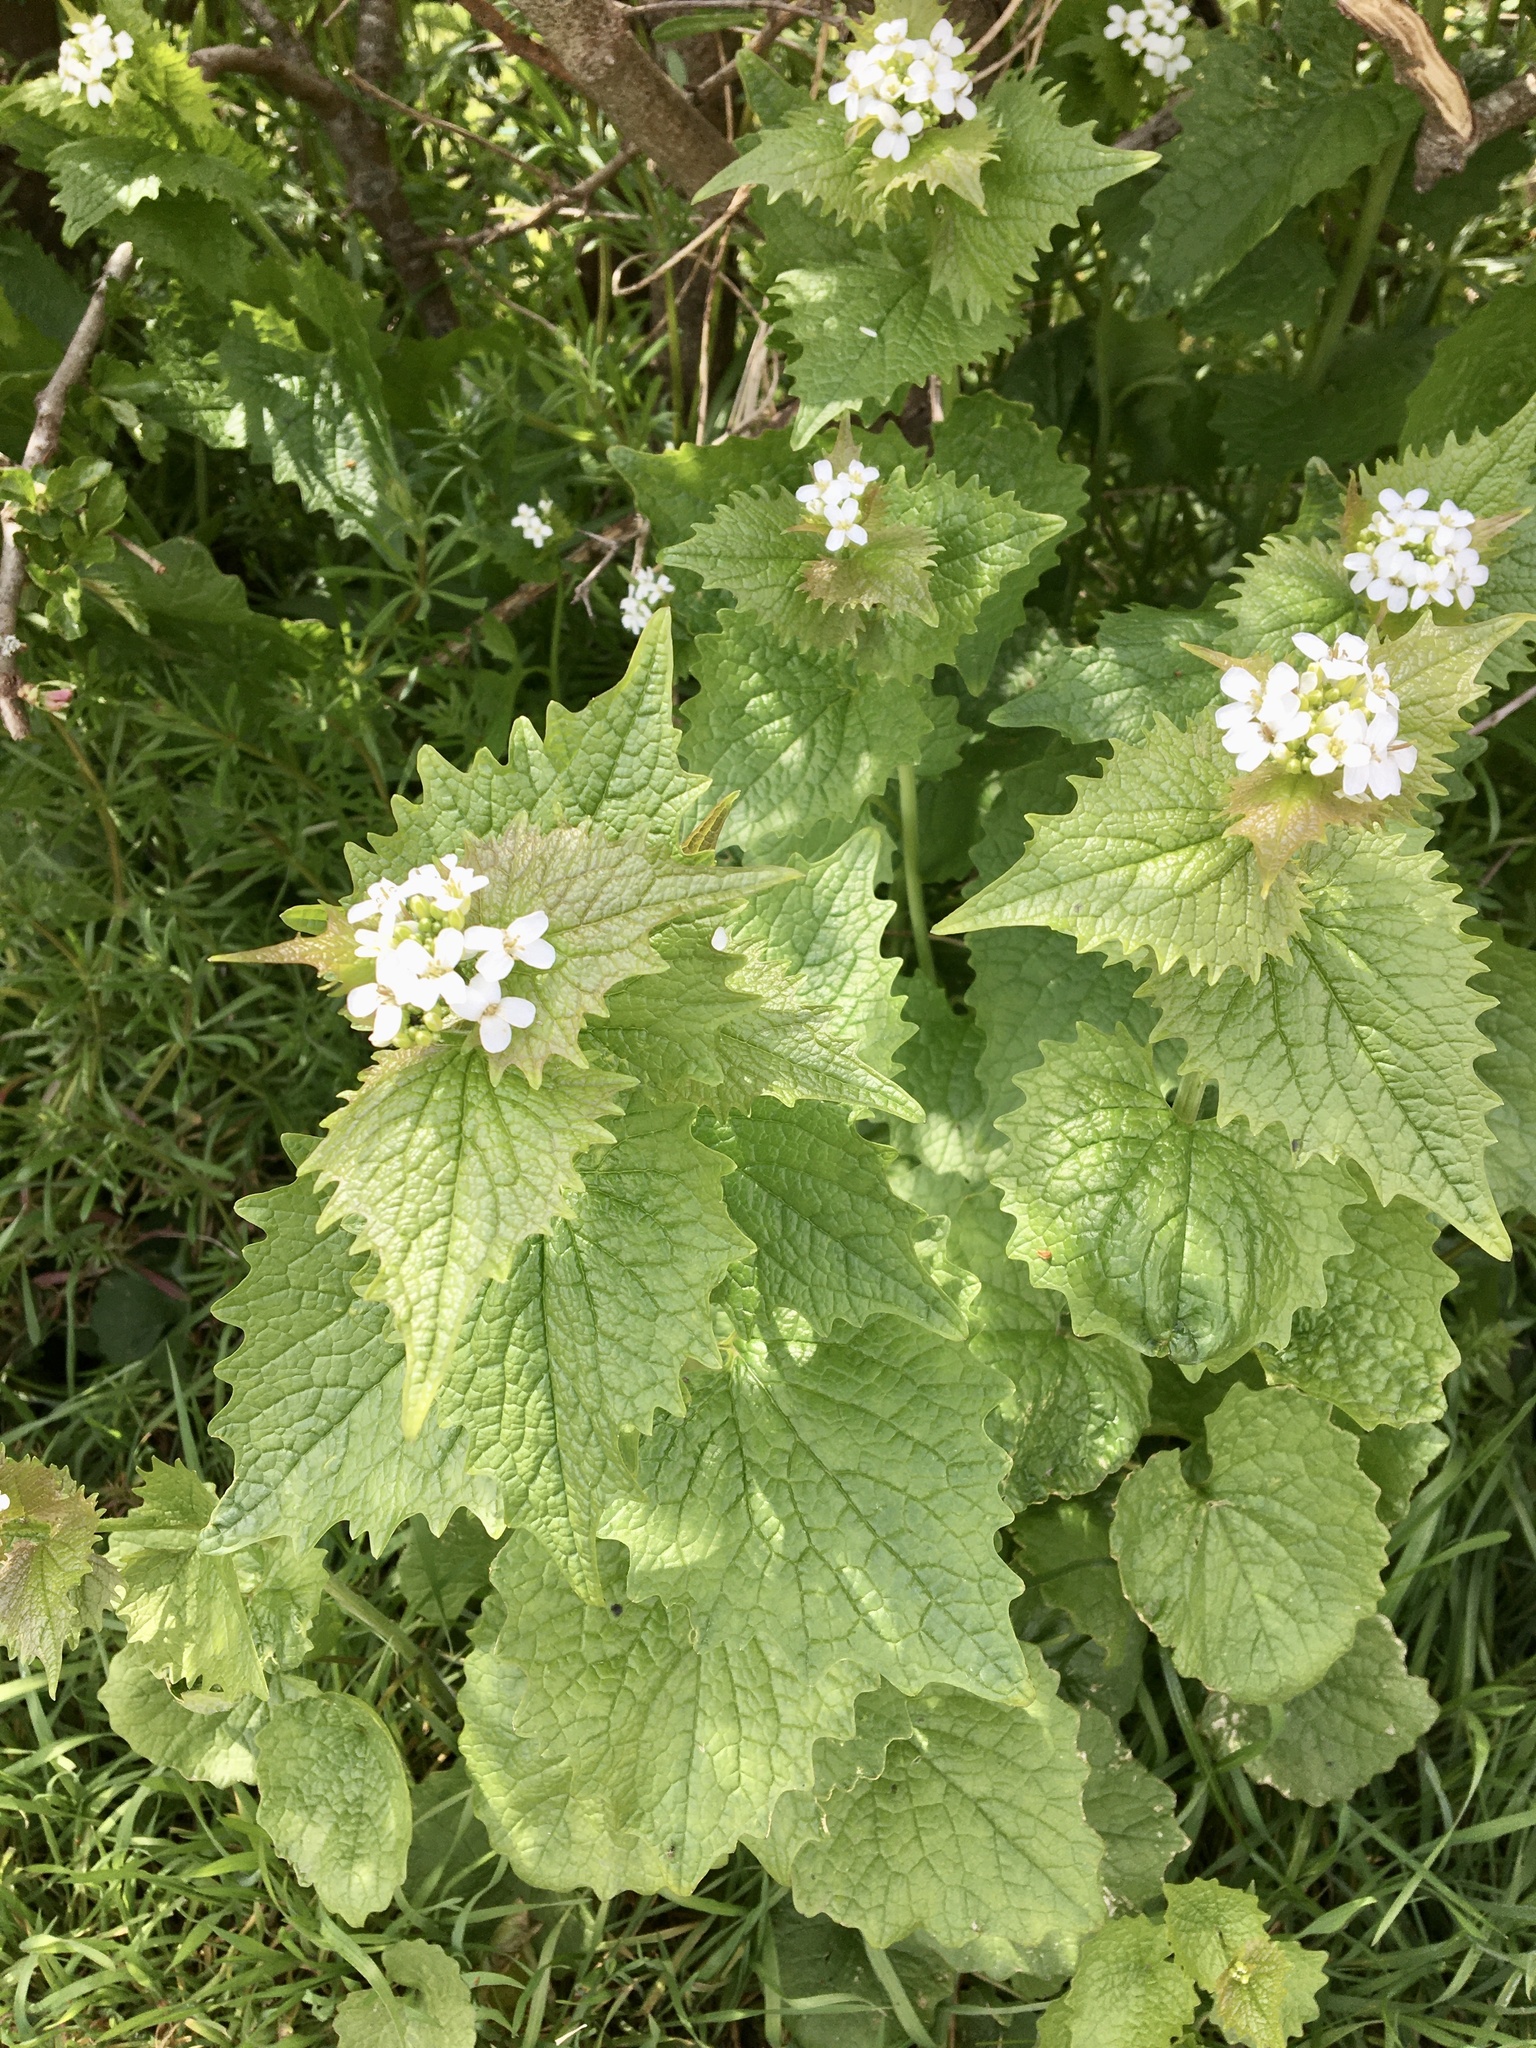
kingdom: Plantae
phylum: Tracheophyta
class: Magnoliopsida
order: Brassicales
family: Brassicaceae
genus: Alliaria
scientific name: Alliaria petiolata
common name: Garlic mustard
